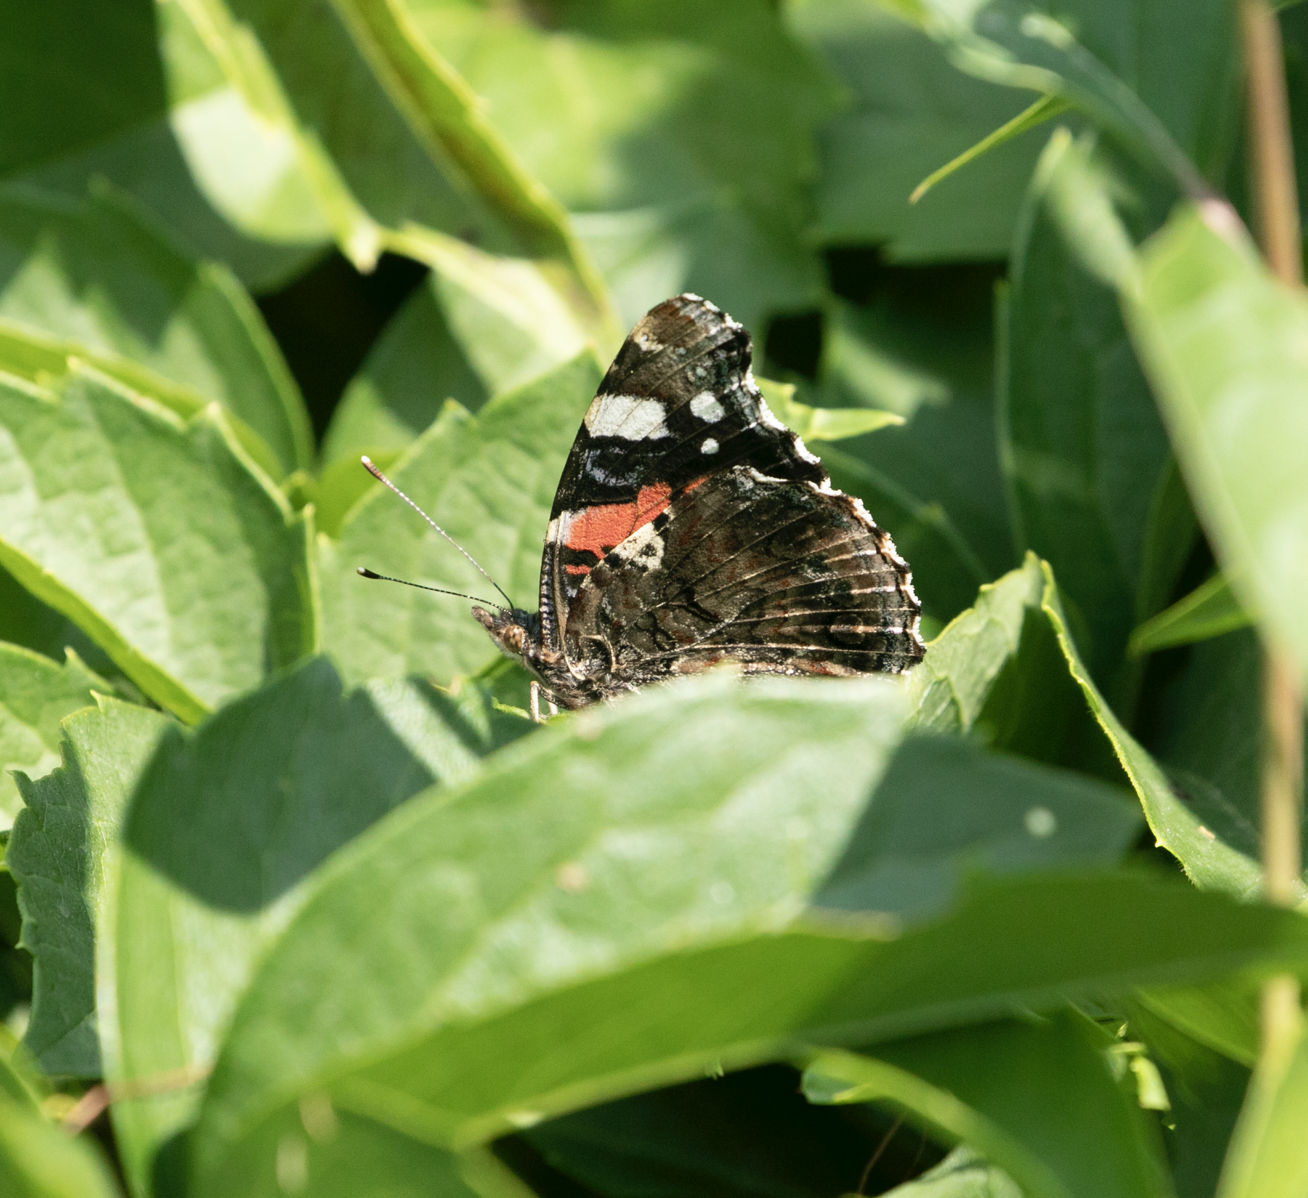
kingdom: Animalia
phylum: Arthropoda
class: Insecta
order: Lepidoptera
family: Nymphalidae
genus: Vanessa
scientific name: Vanessa atalanta
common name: Red admiral
